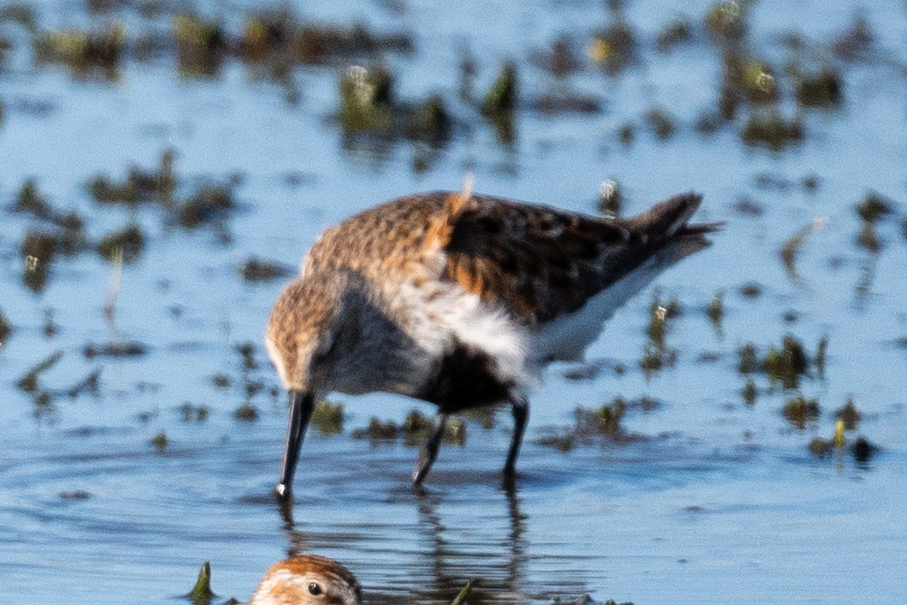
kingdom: Animalia
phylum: Chordata
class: Aves
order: Charadriiformes
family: Scolopacidae
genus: Calidris
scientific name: Calidris alpina
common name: Dunlin
